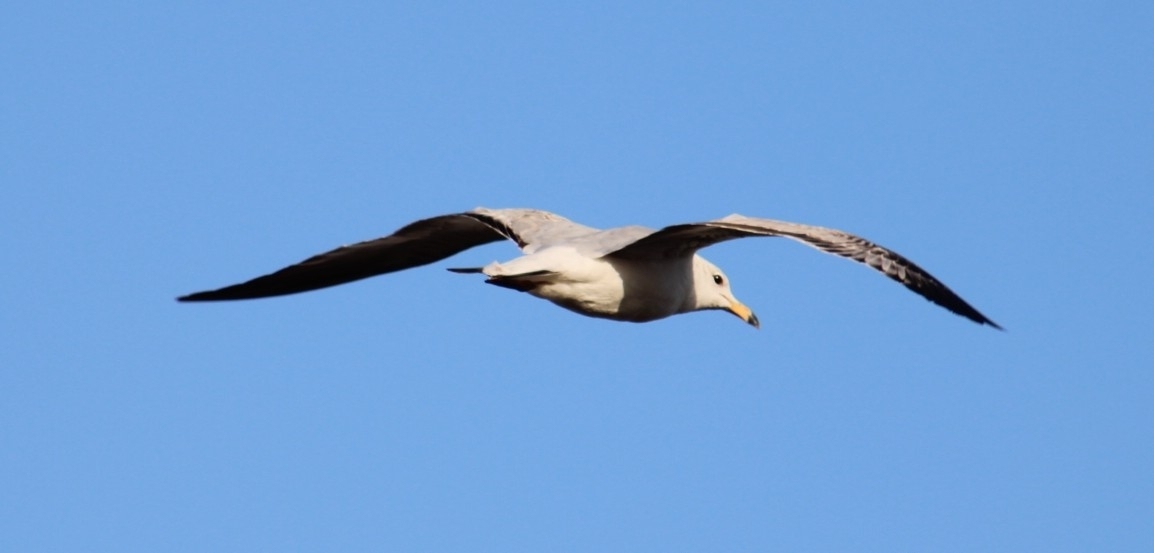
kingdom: Animalia
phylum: Chordata
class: Aves
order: Charadriiformes
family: Laridae
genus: Larus
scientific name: Larus delawarensis
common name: Ring-billed gull
